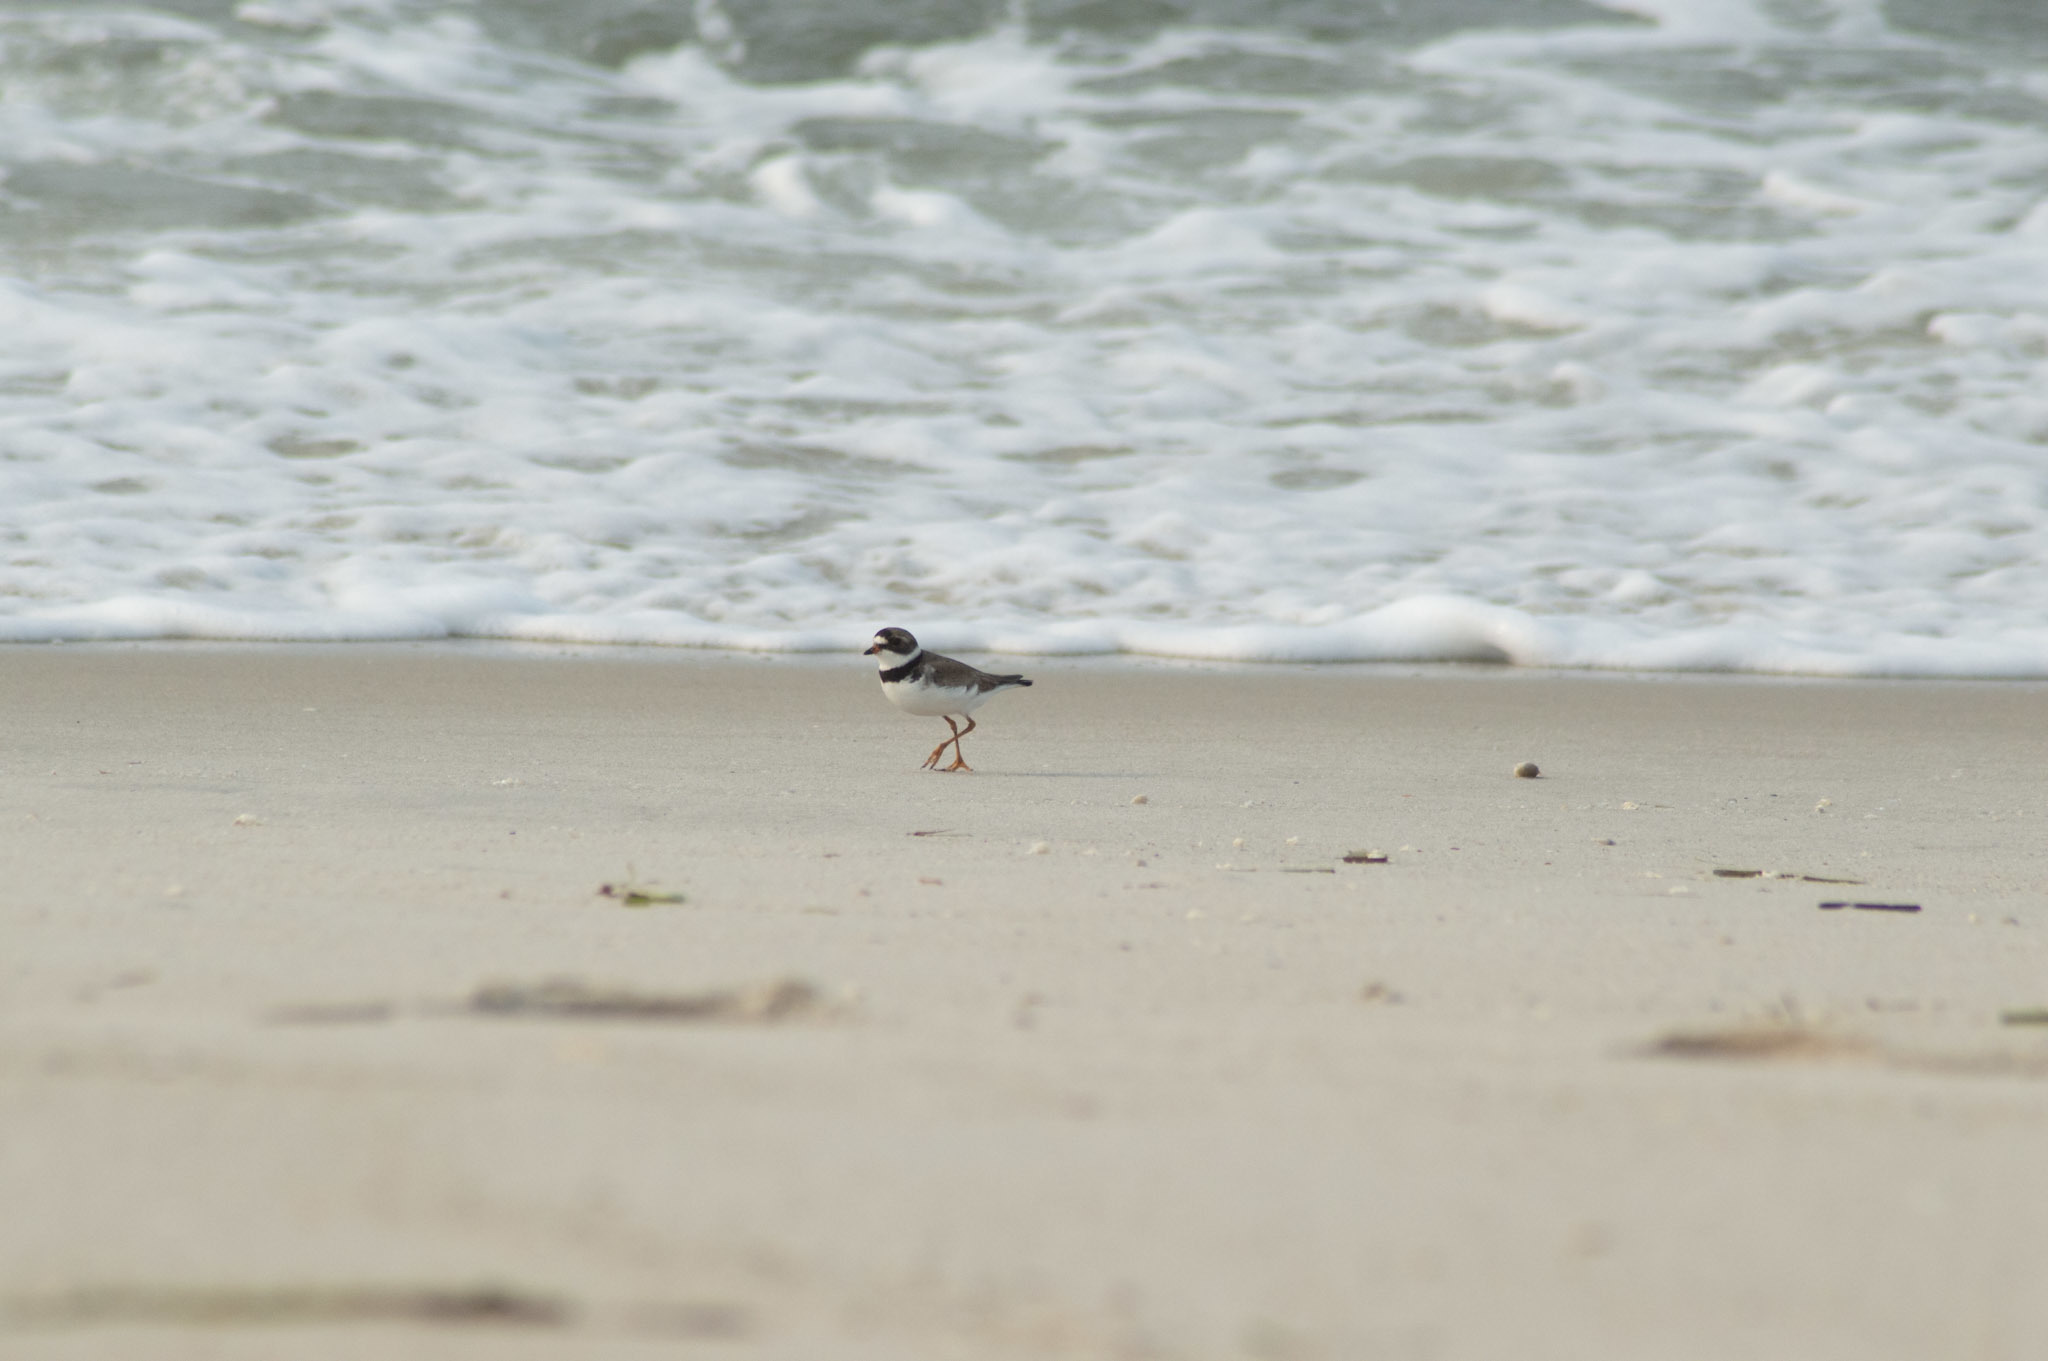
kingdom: Animalia
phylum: Chordata
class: Aves
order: Charadriiformes
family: Charadriidae
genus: Charadrius
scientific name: Charadrius semipalmatus
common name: Semipalmated plover
